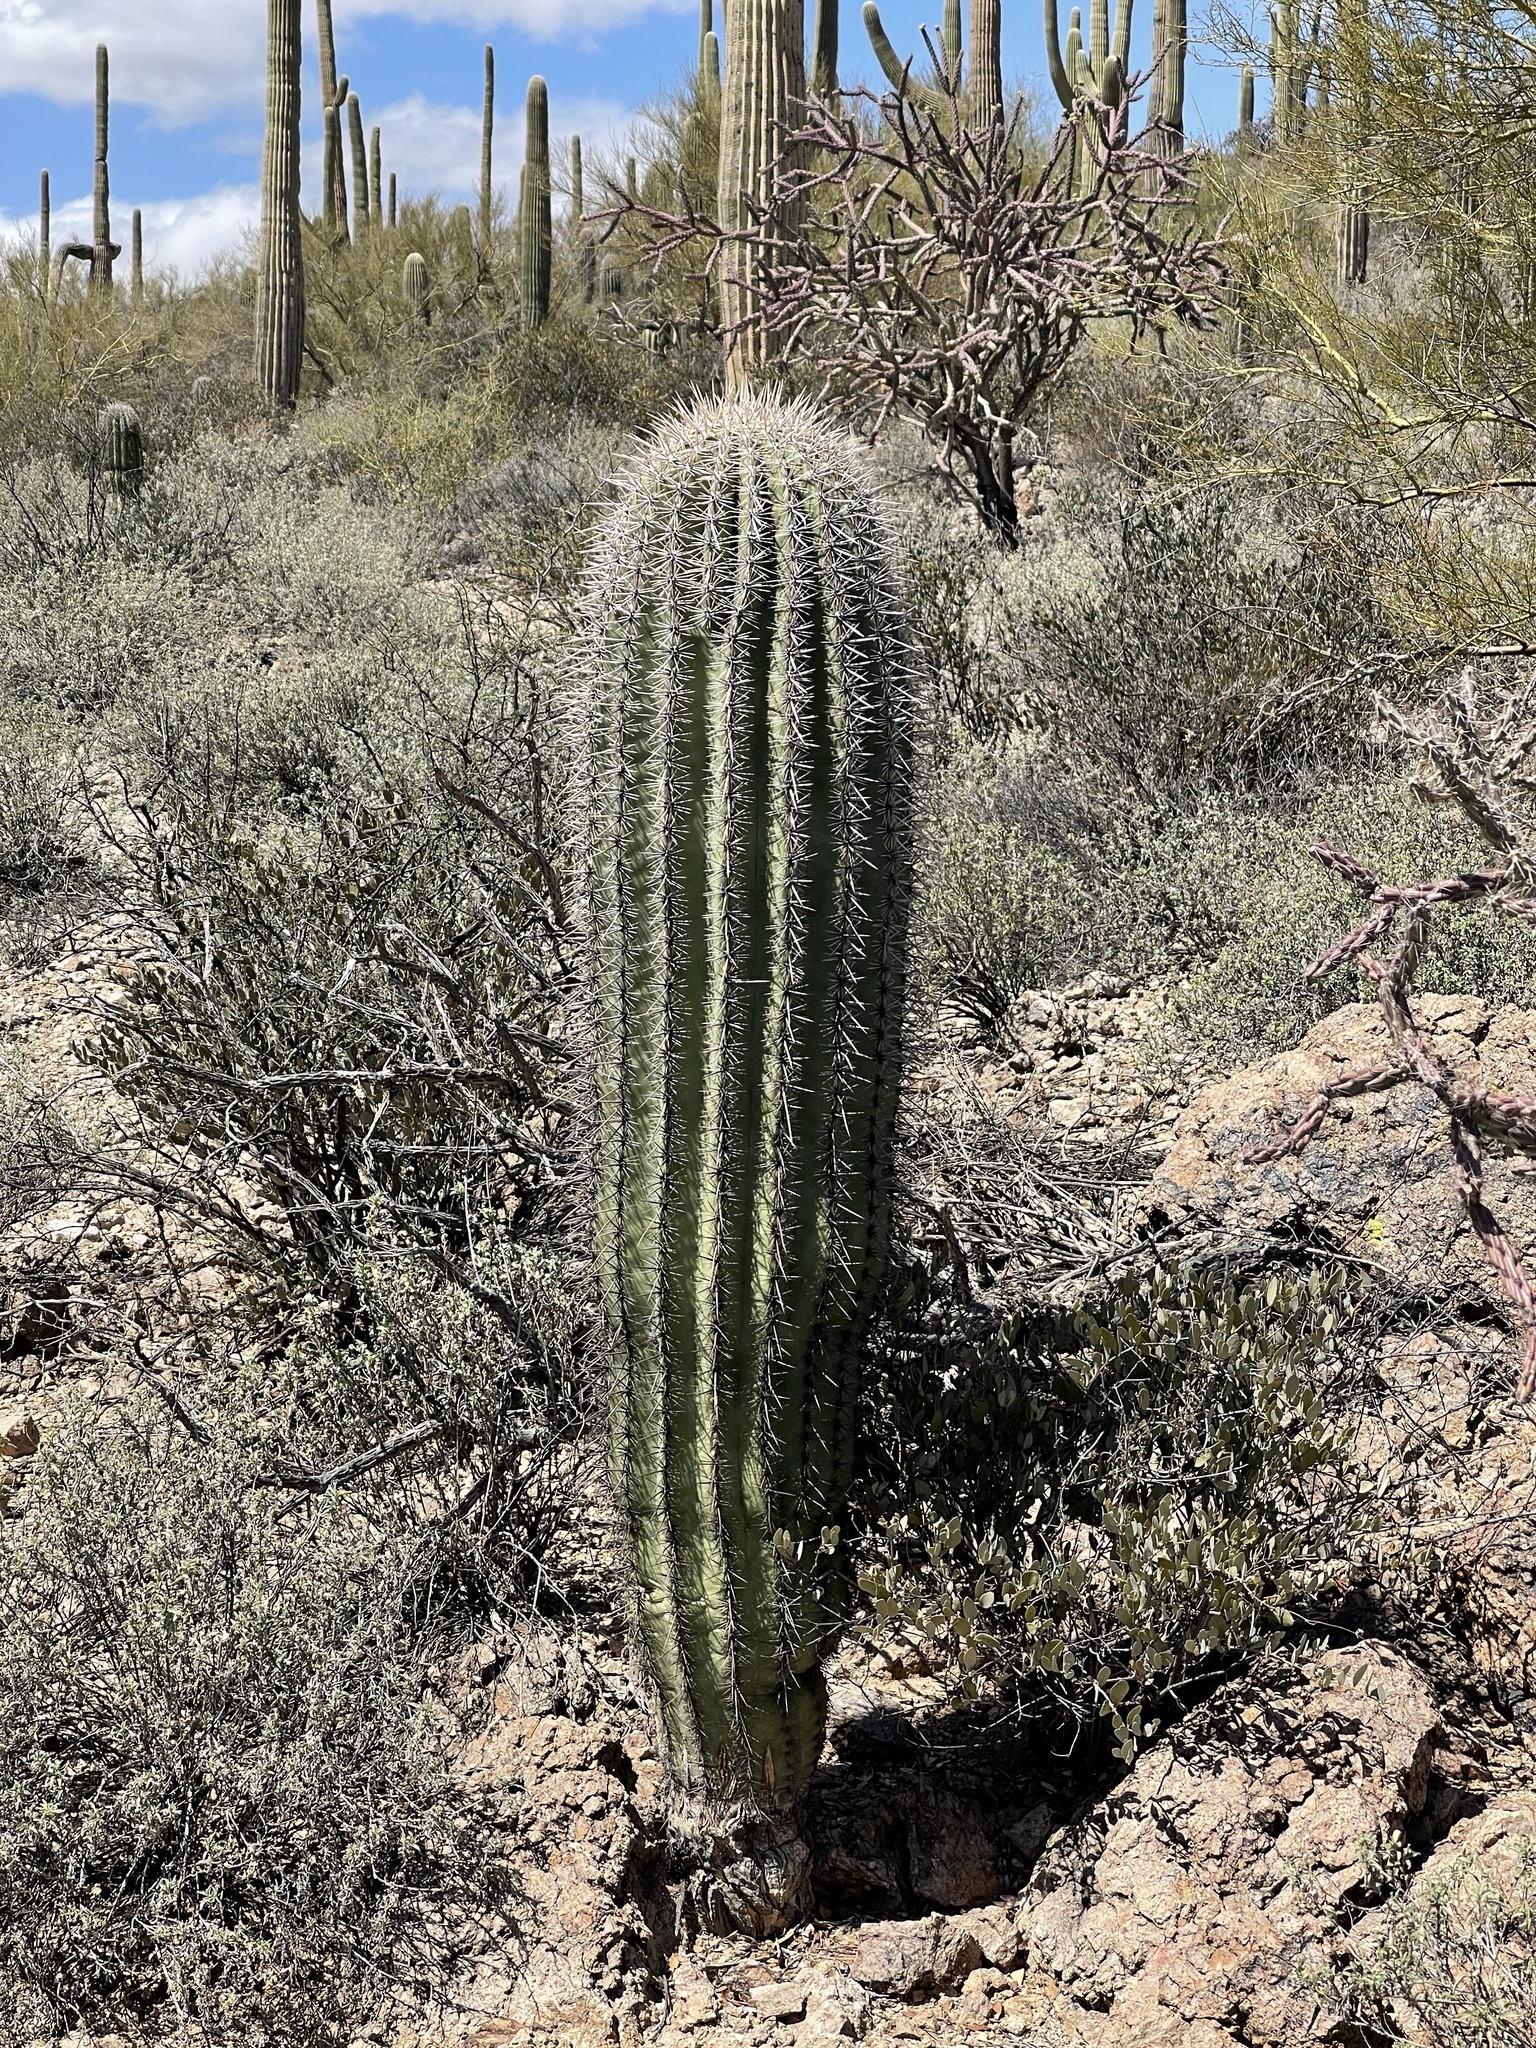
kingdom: Plantae
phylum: Tracheophyta
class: Magnoliopsida
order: Caryophyllales
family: Cactaceae
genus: Carnegiea
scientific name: Carnegiea gigantea
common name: Saguaro
